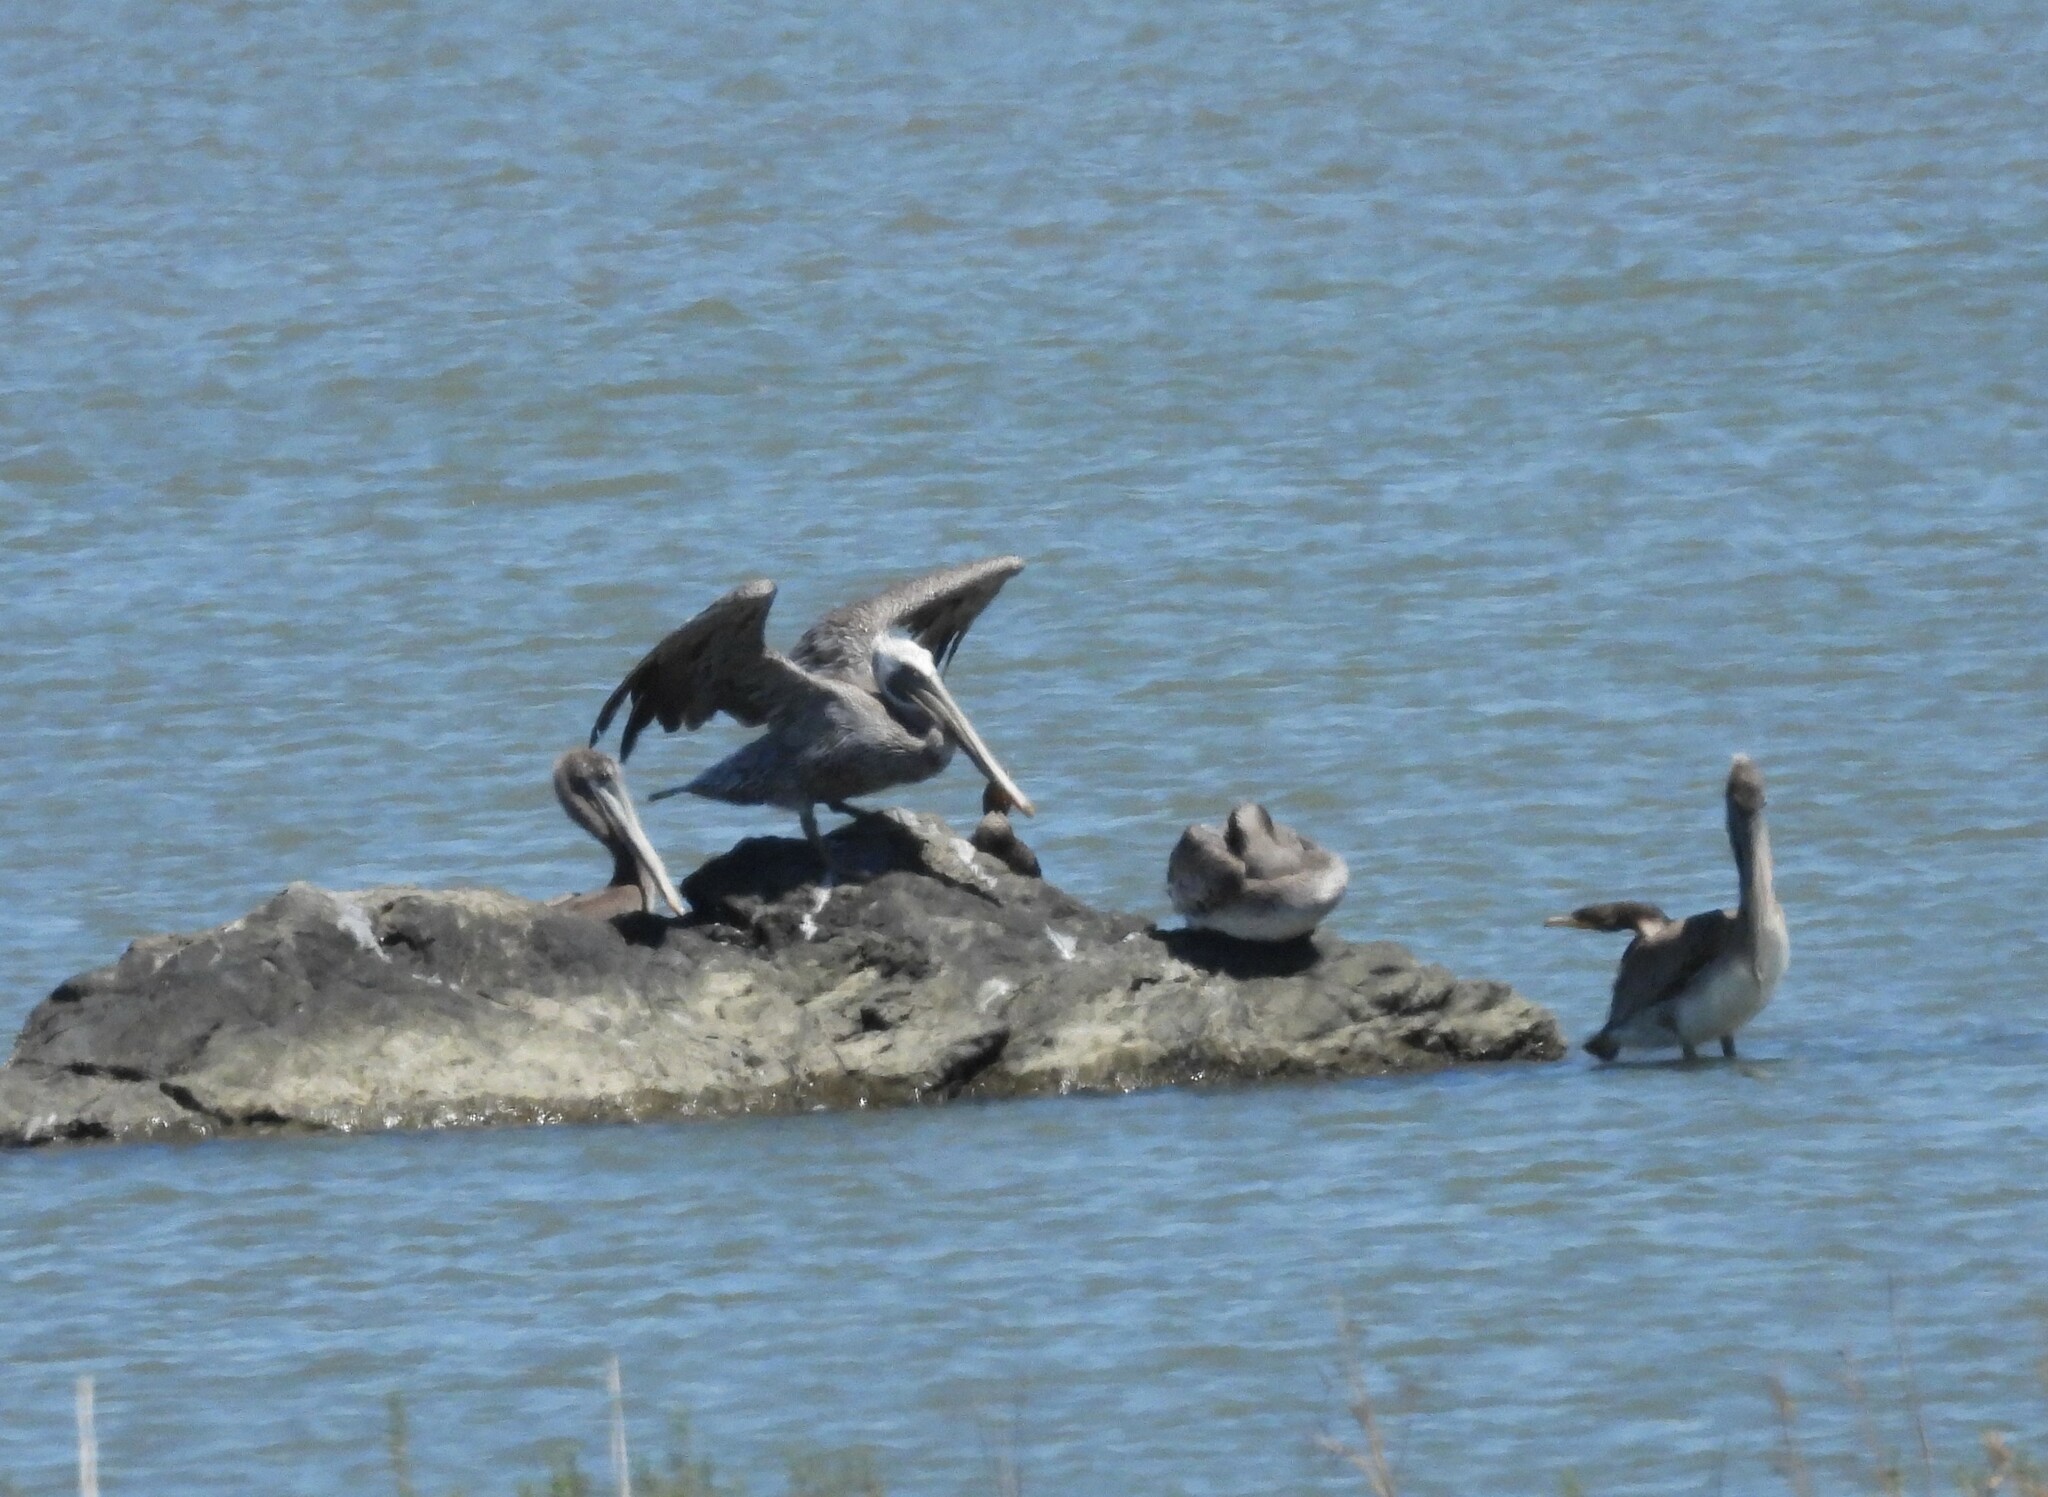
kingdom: Animalia
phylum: Chordata
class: Aves
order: Pelecaniformes
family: Pelecanidae
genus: Pelecanus
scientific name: Pelecanus occidentalis
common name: Brown pelican
